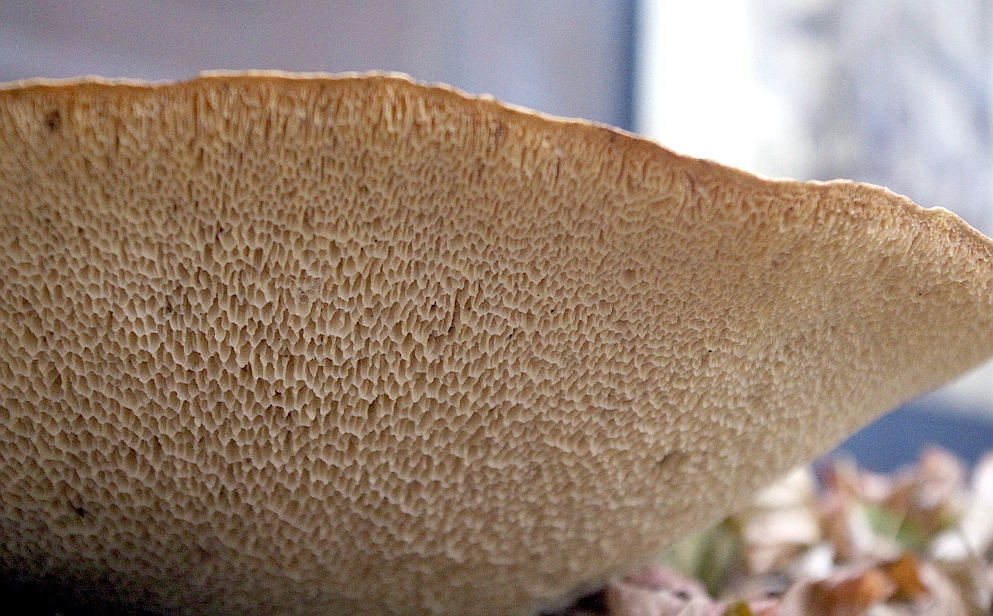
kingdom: Fungi
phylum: Basidiomycota
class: Agaricomycetes
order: Polyporales
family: Polyporaceae
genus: Cerioporus
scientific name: Cerioporus squamosus
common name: Dryad's saddle
